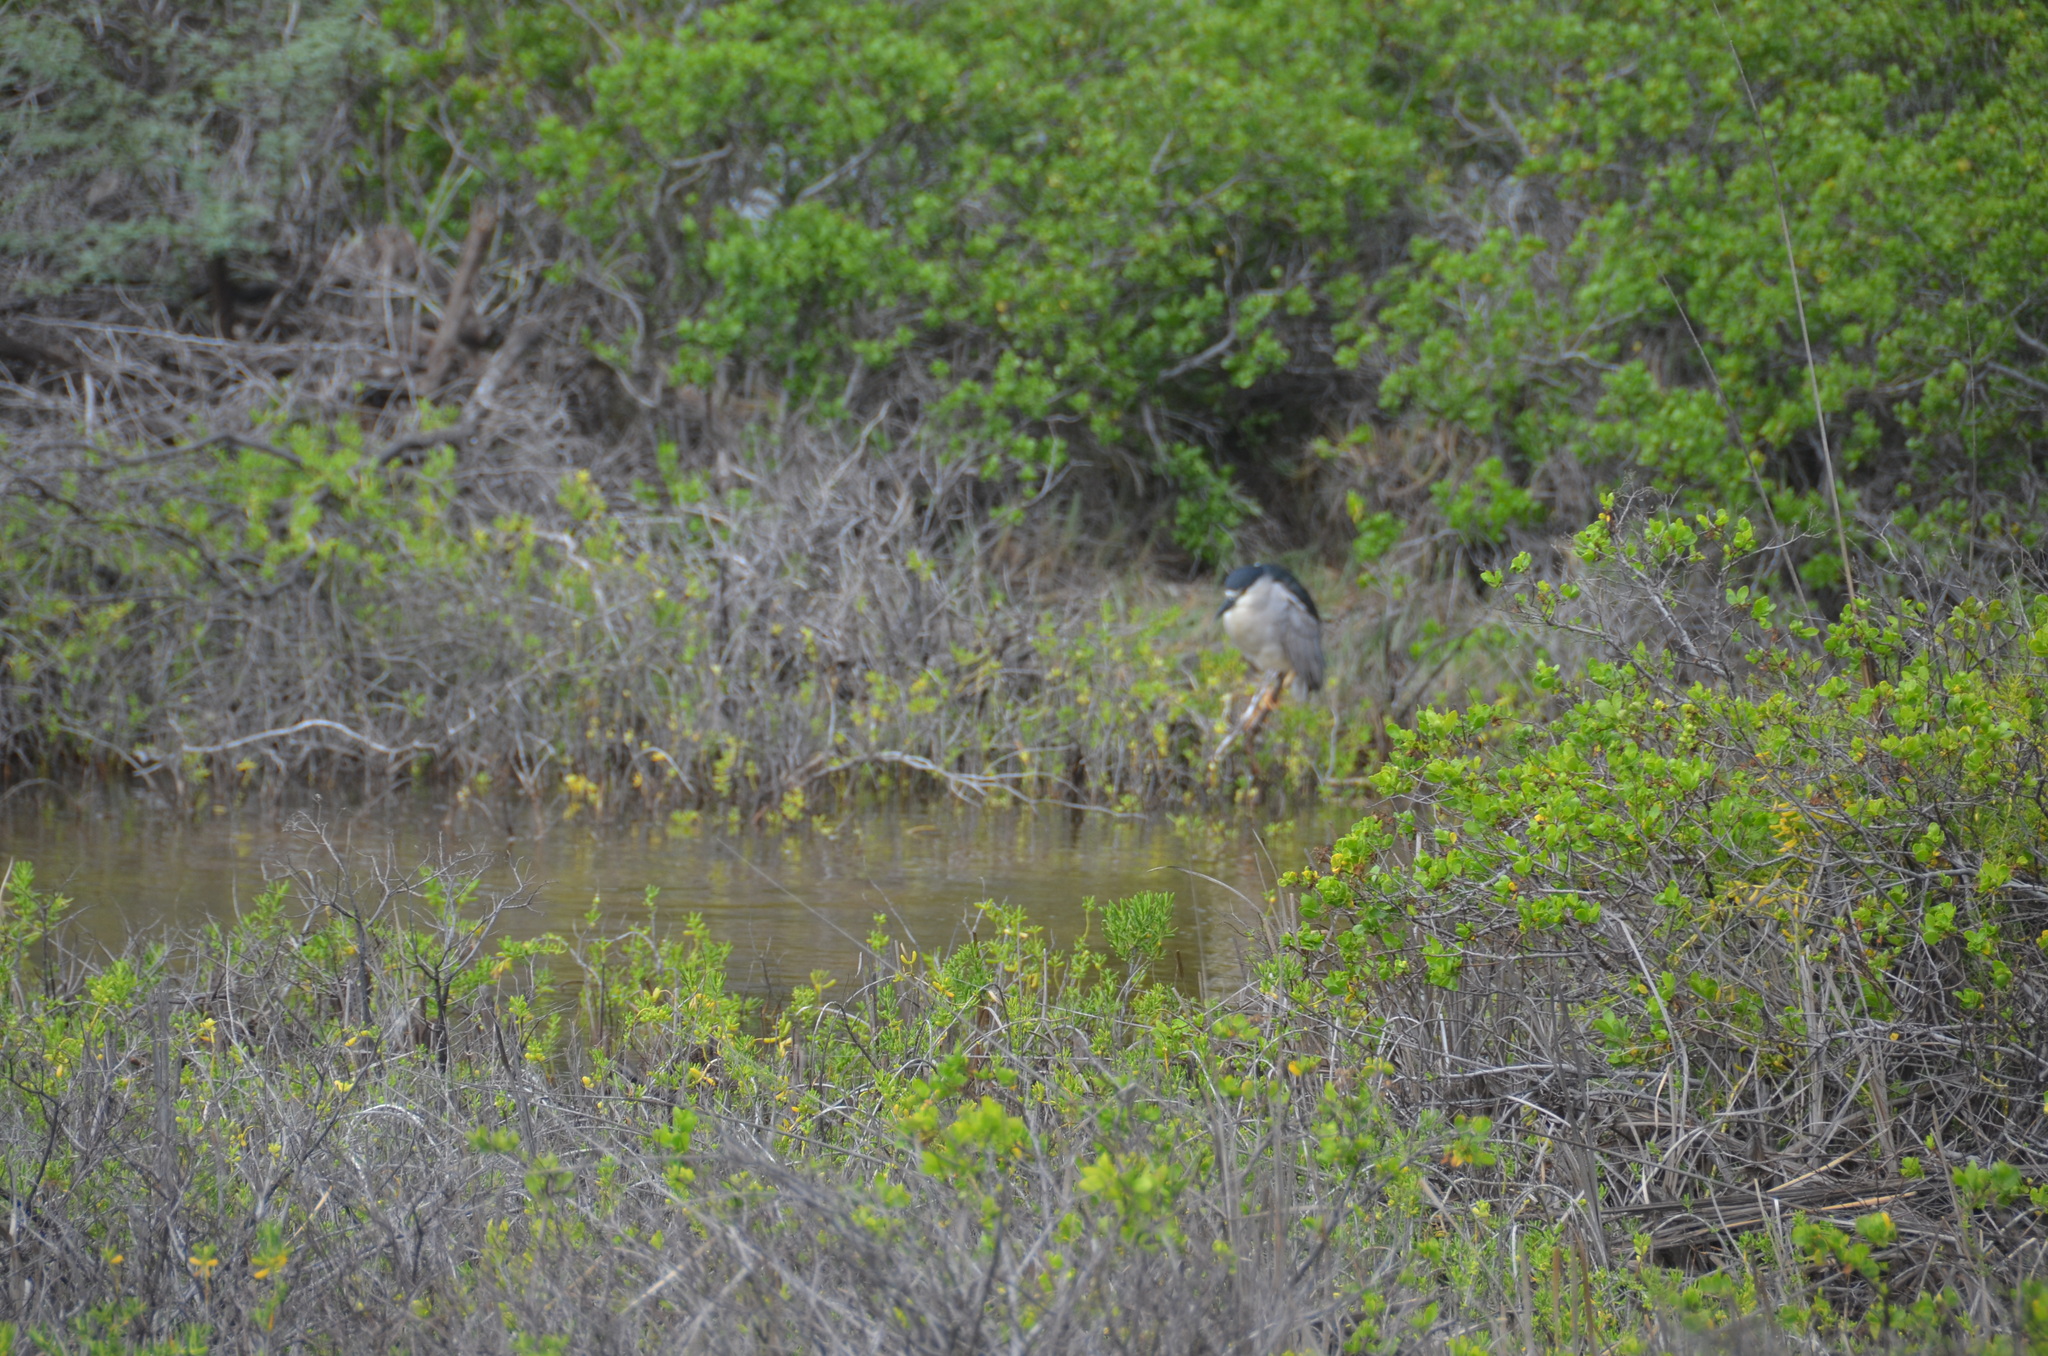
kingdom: Animalia
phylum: Chordata
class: Aves
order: Pelecaniformes
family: Ardeidae
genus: Nycticorax
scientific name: Nycticorax nycticorax
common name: Black-crowned night heron
